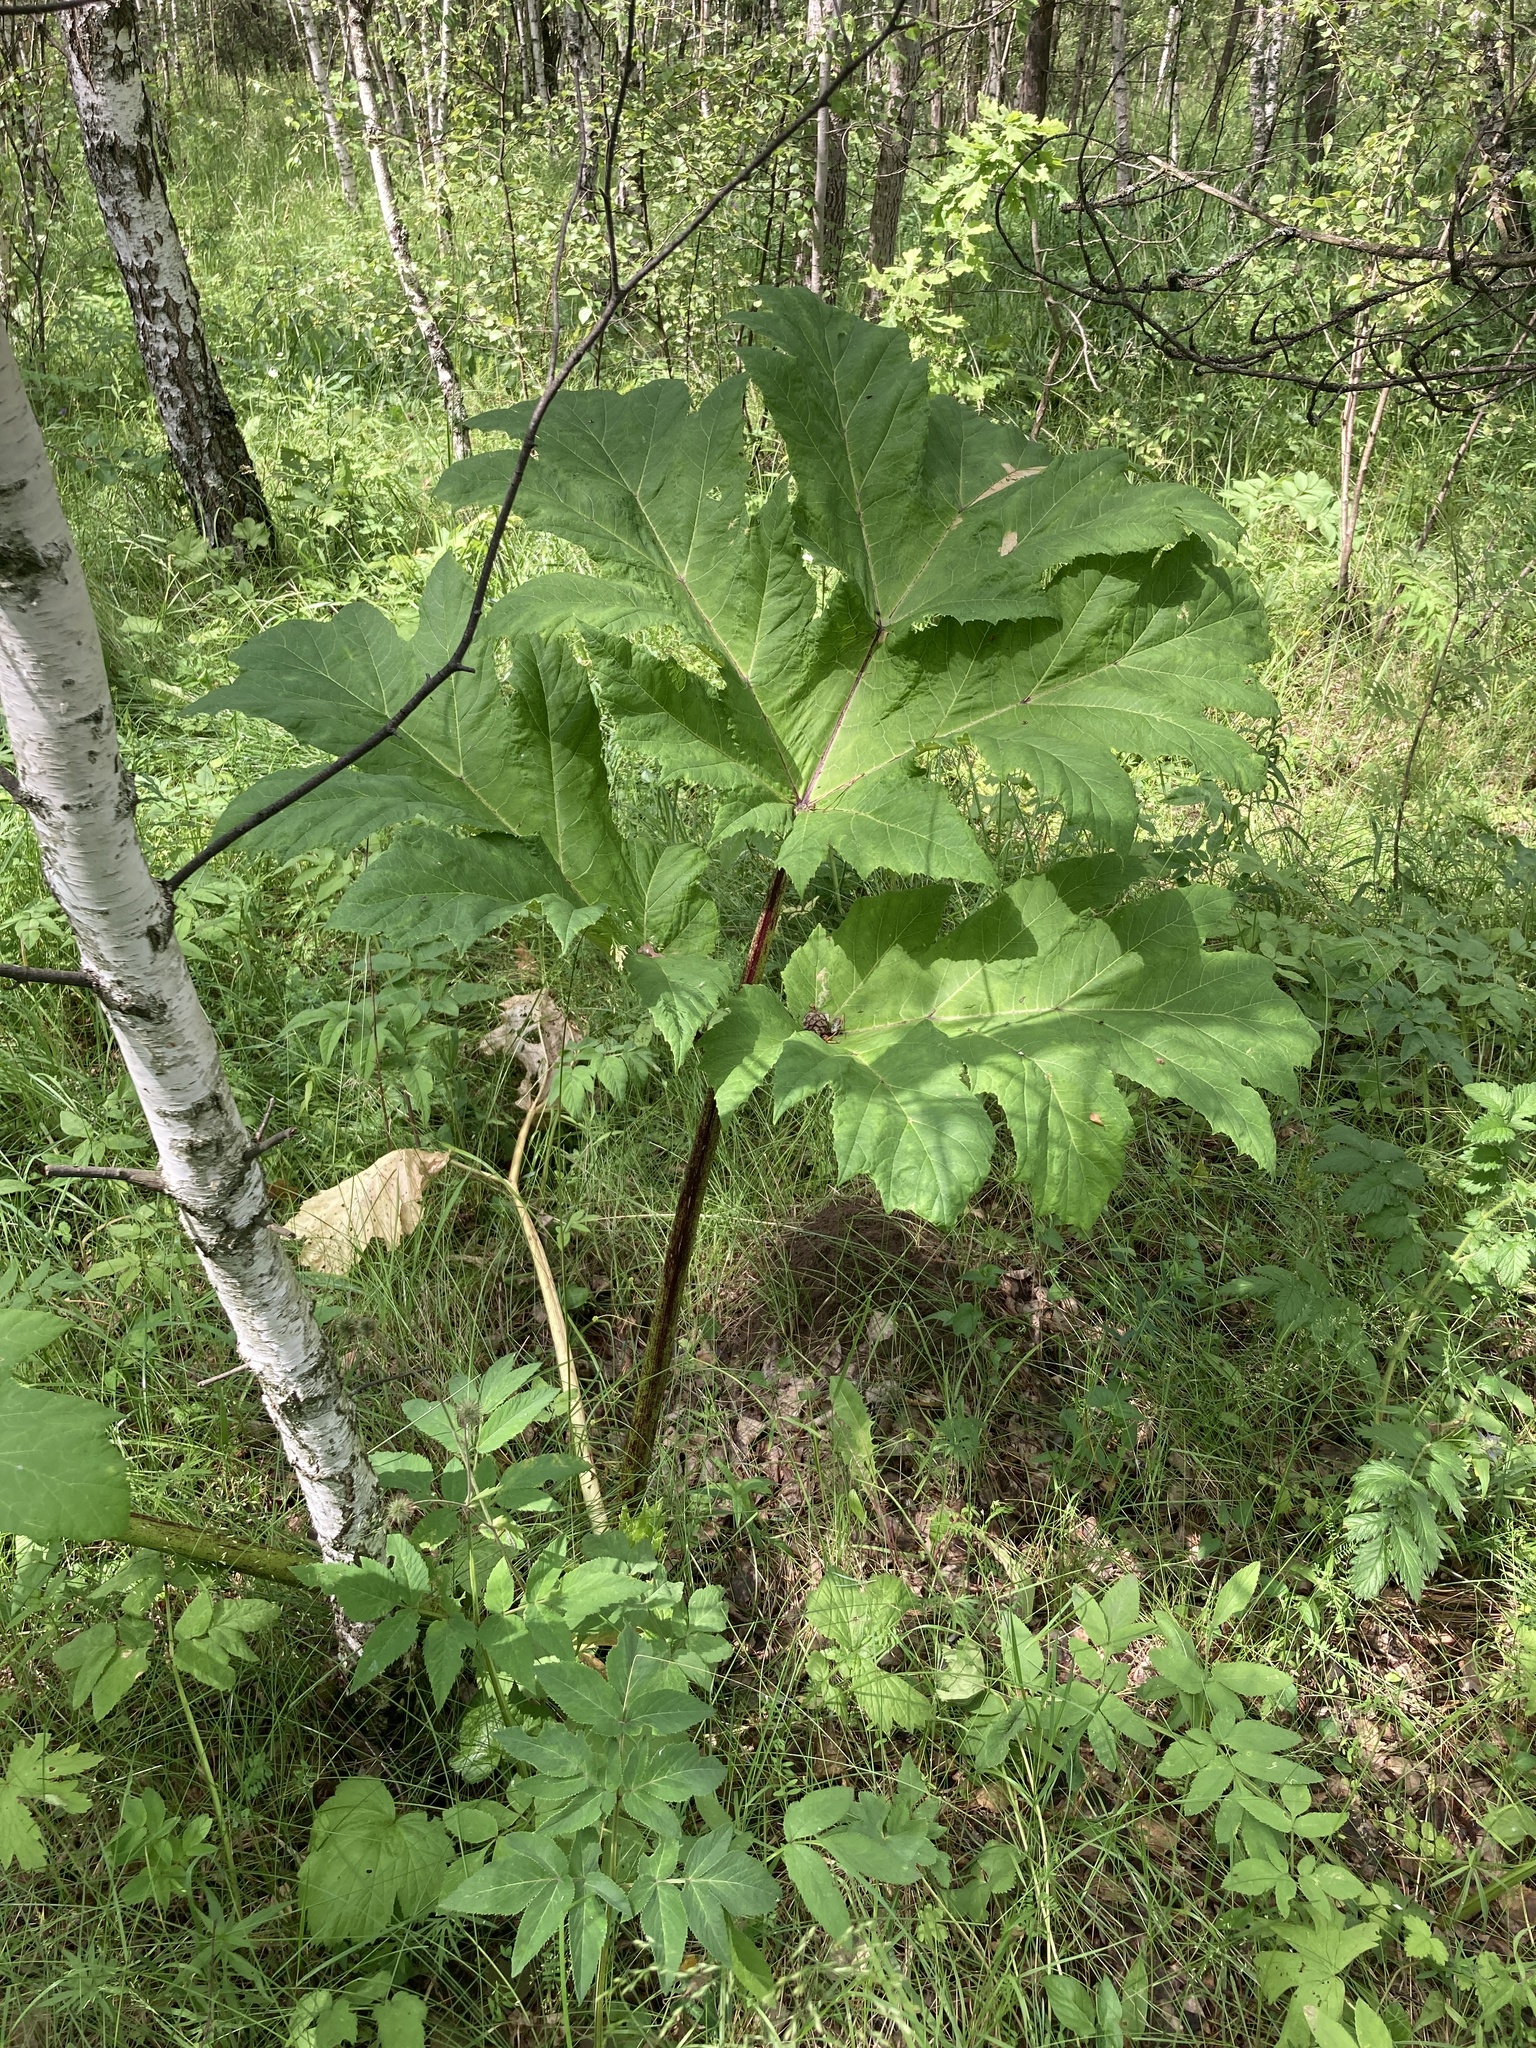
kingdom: Plantae
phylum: Tracheophyta
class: Magnoliopsida
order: Apiales
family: Apiaceae
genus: Heracleum
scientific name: Heracleum sosnowskyi
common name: Sosnowsky's hogweed
